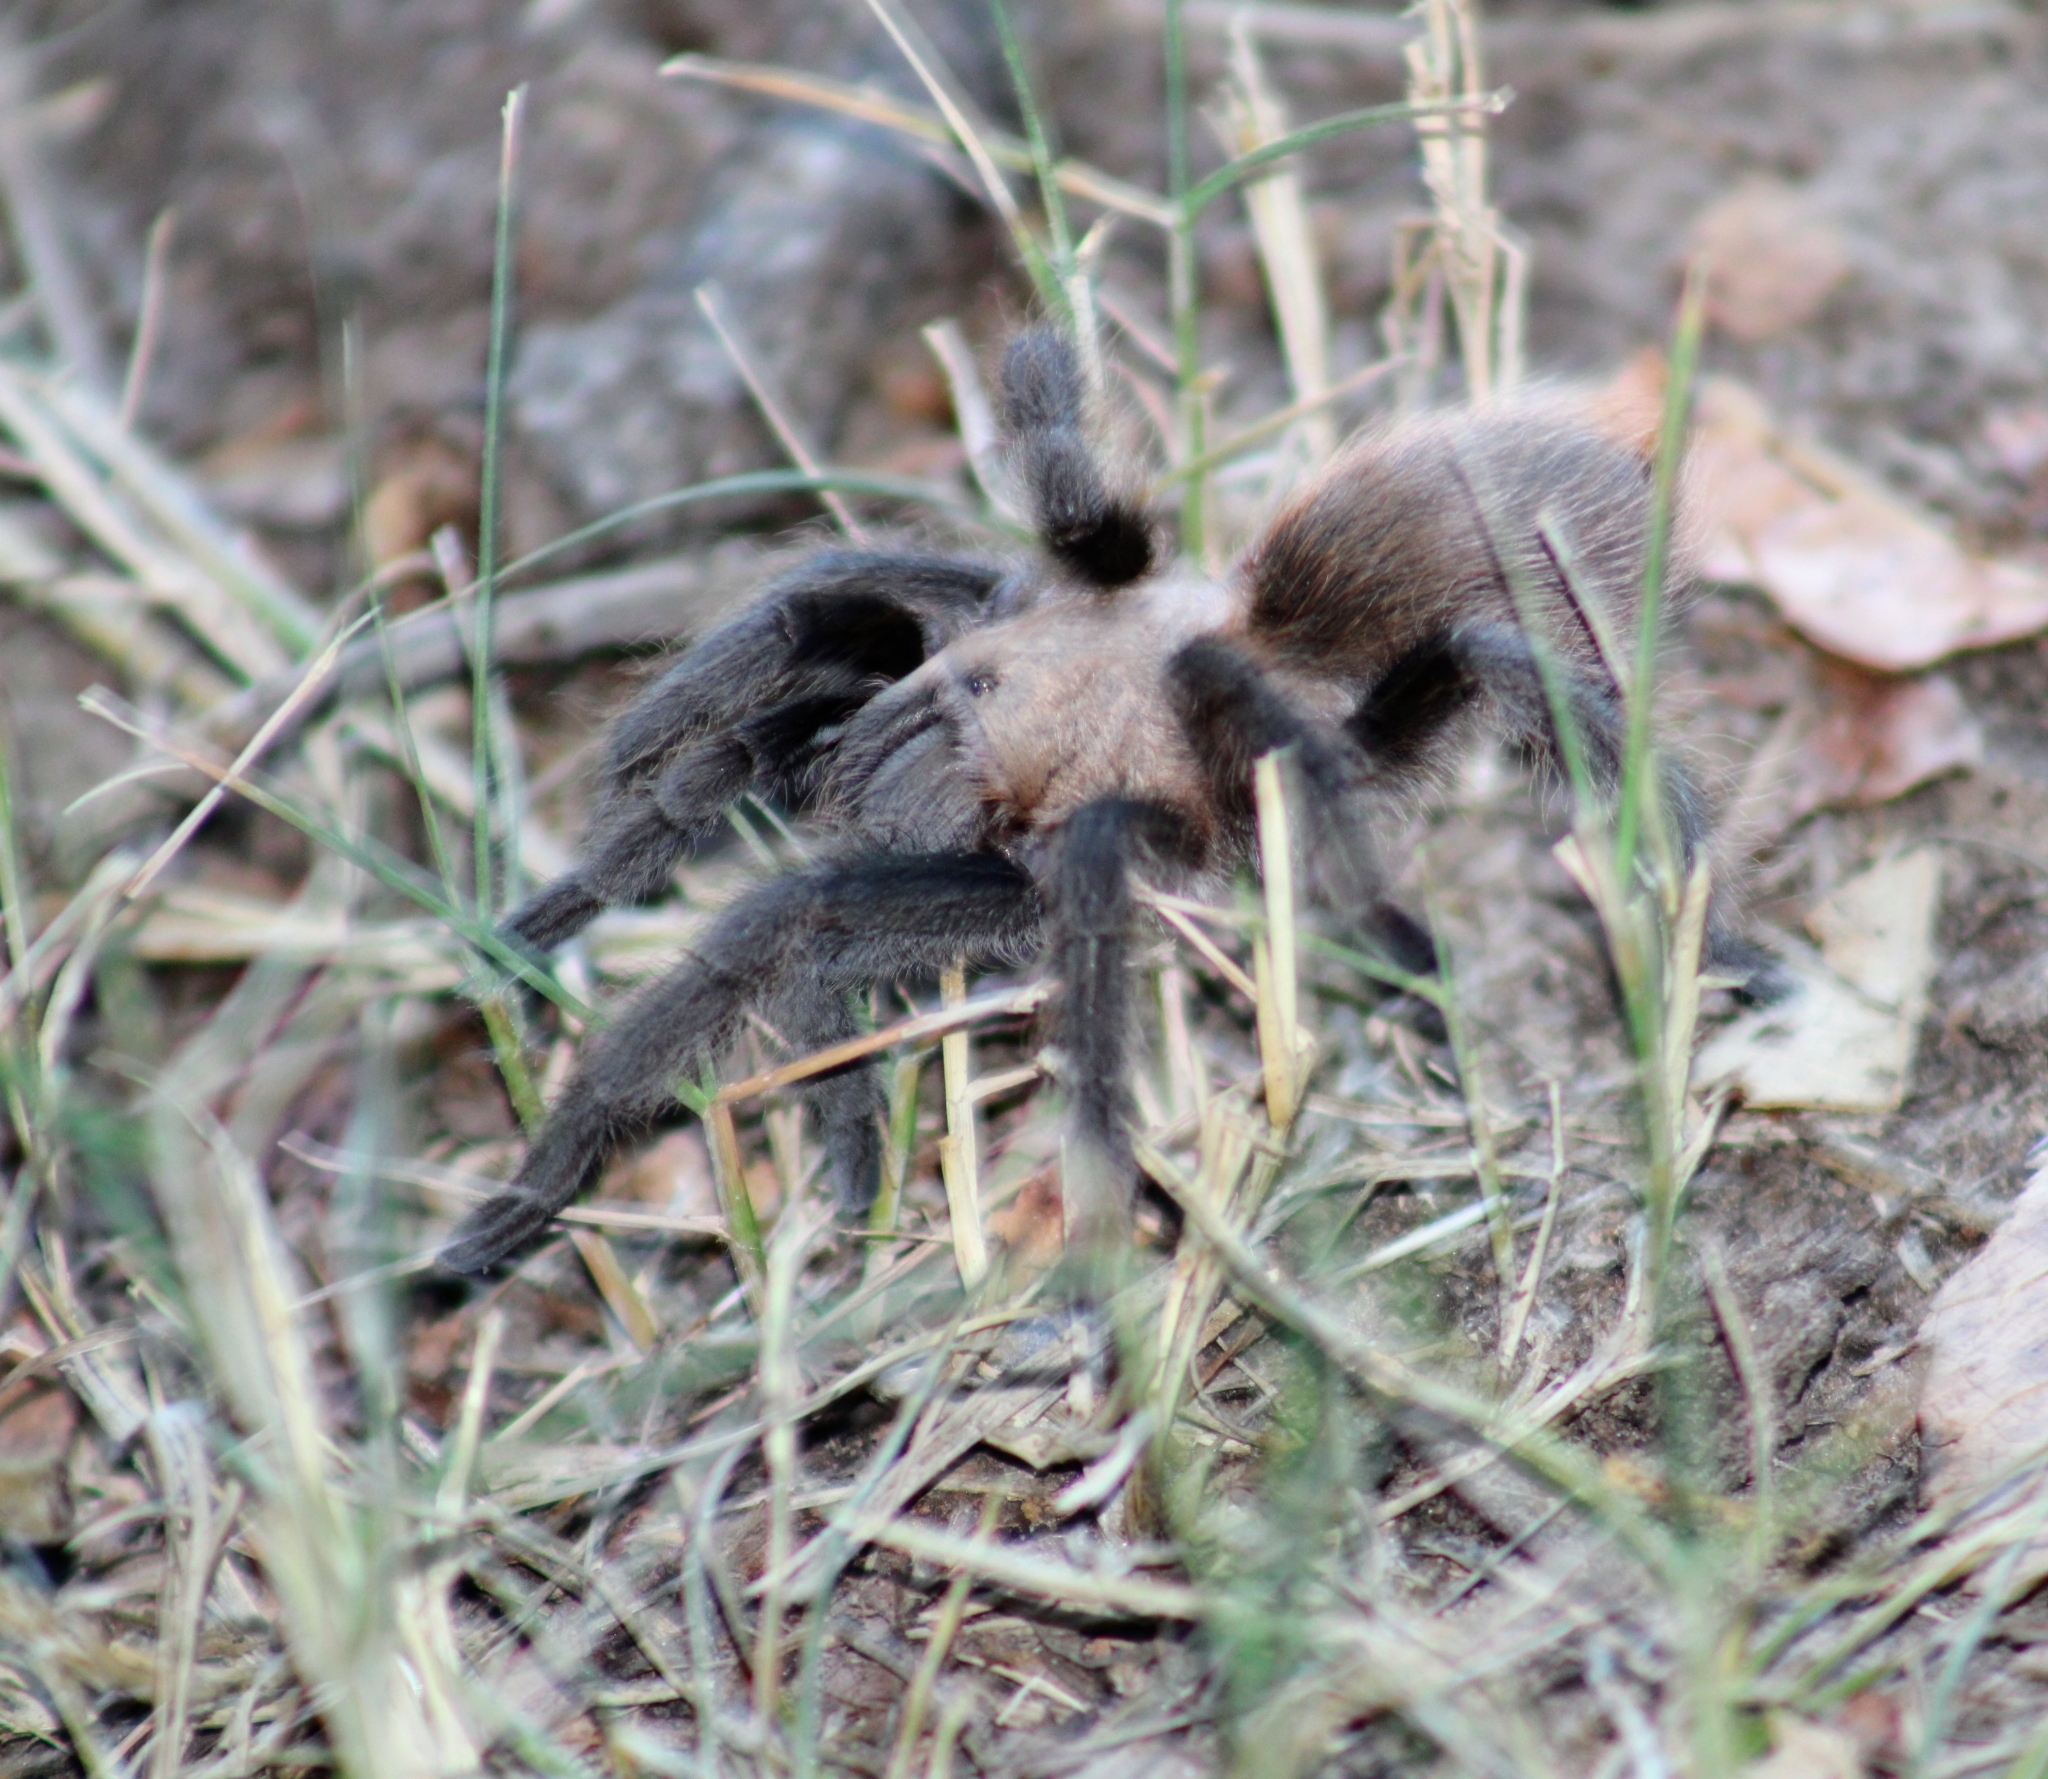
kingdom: Animalia
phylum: Arthropoda
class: Arachnida
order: Araneae
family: Theraphosidae
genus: Aphonopelma
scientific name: Aphonopelma hentzi
